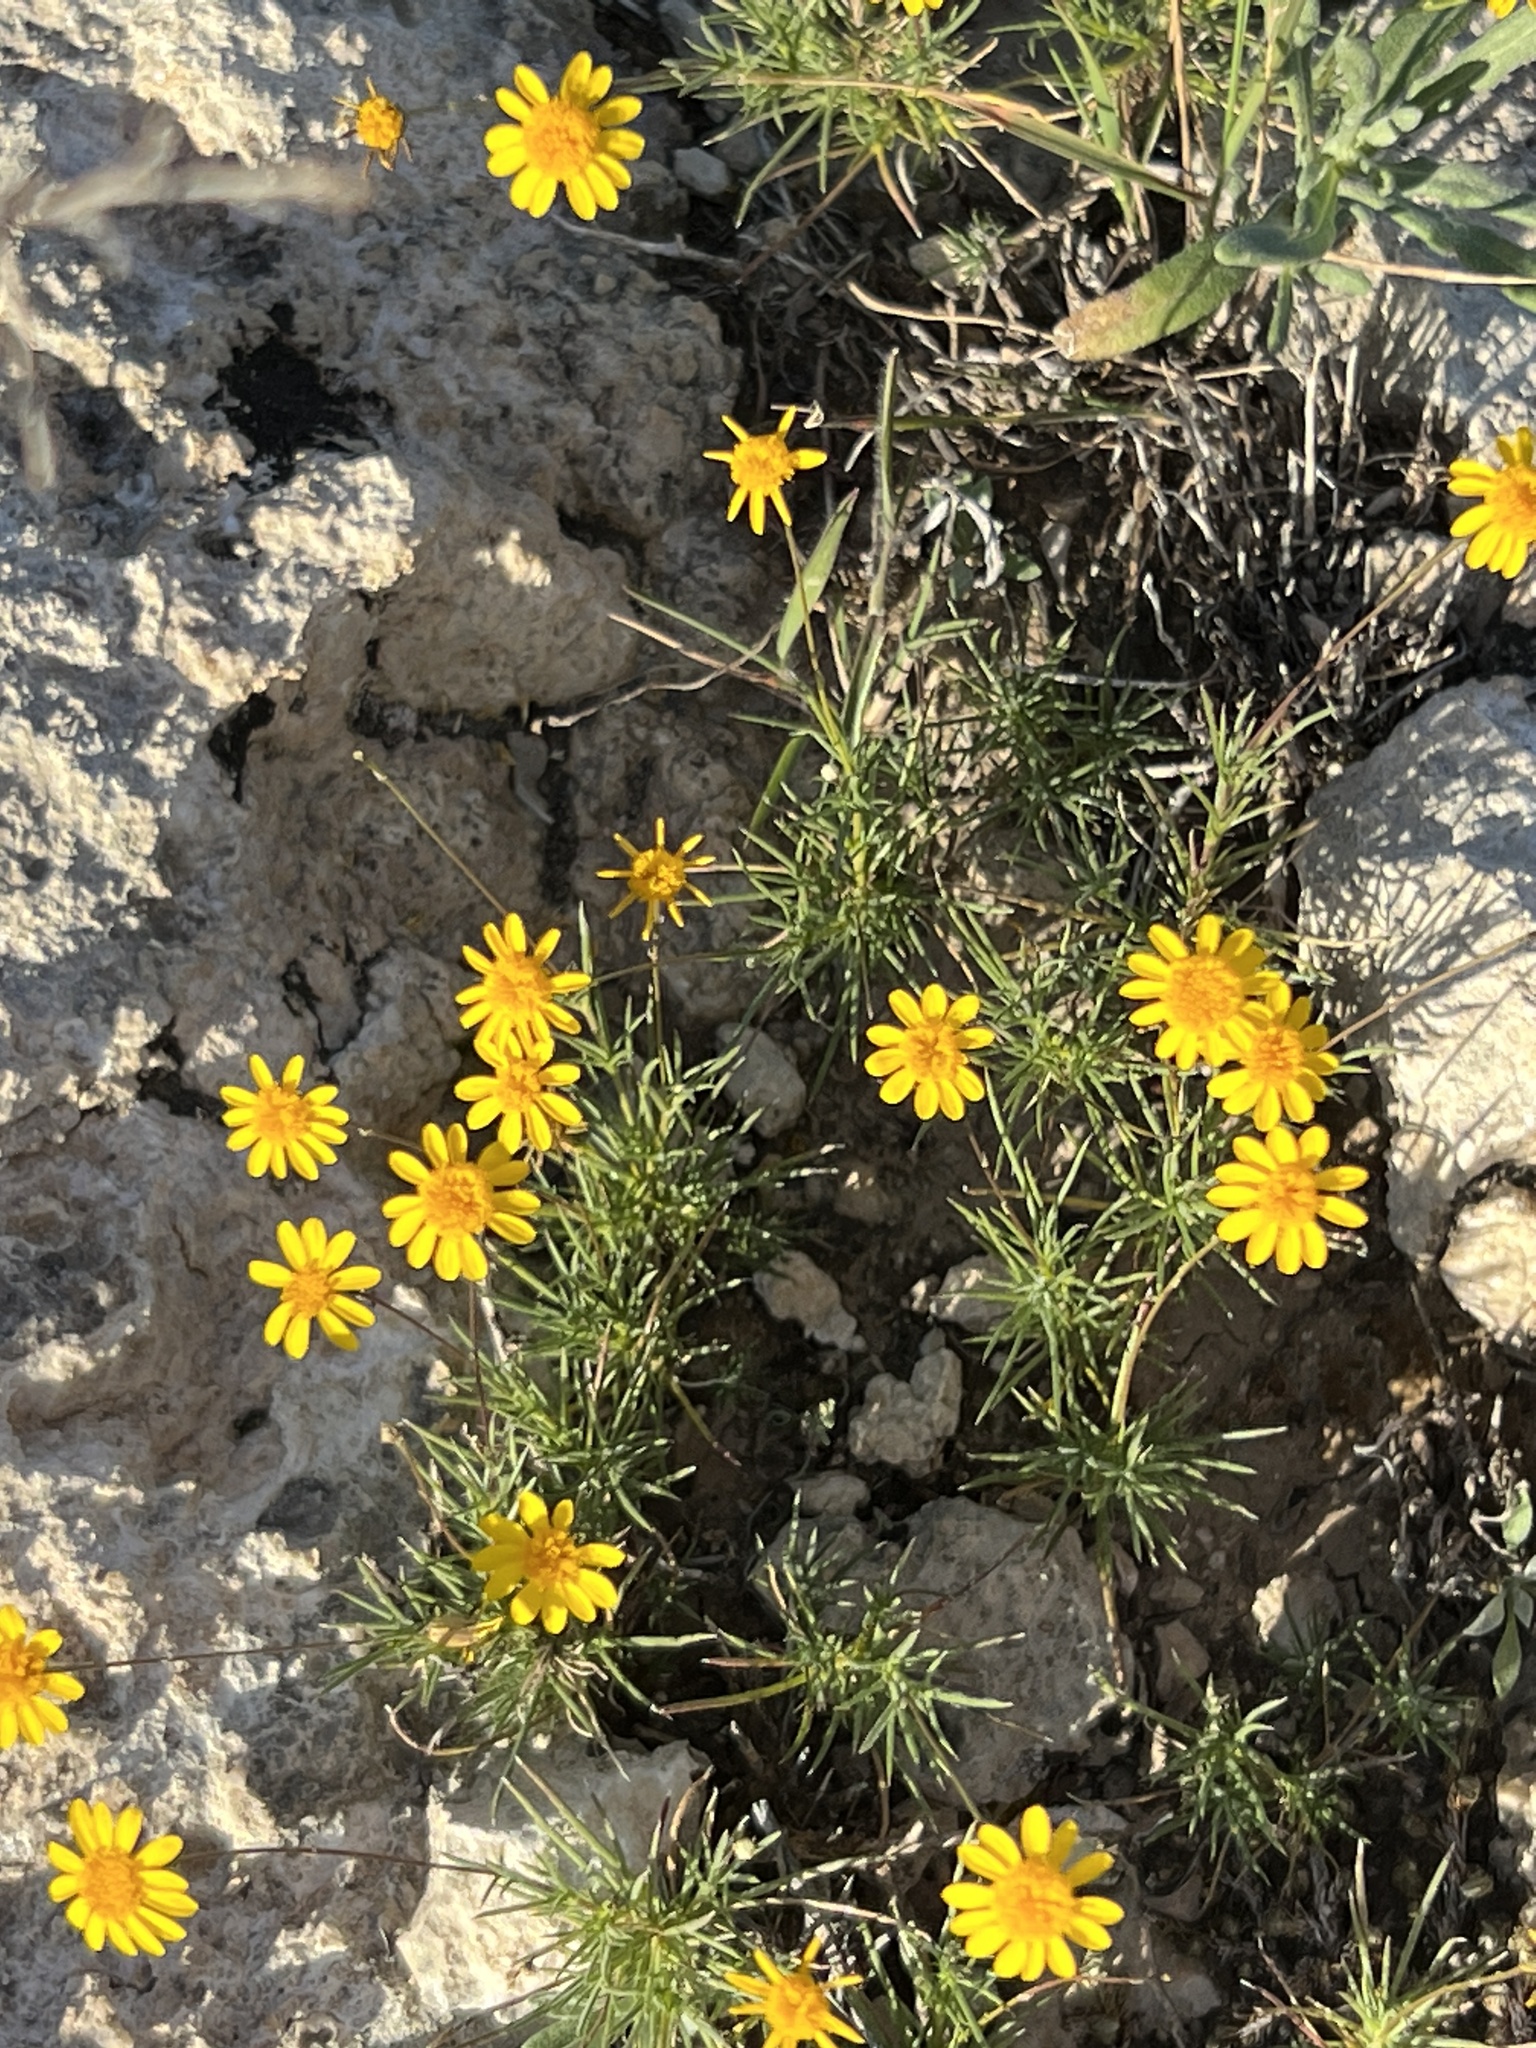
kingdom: Plantae
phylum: Tracheophyta
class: Magnoliopsida
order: Asterales
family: Asteraceae
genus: Thymophylla
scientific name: Thymophylla pentachaeta
